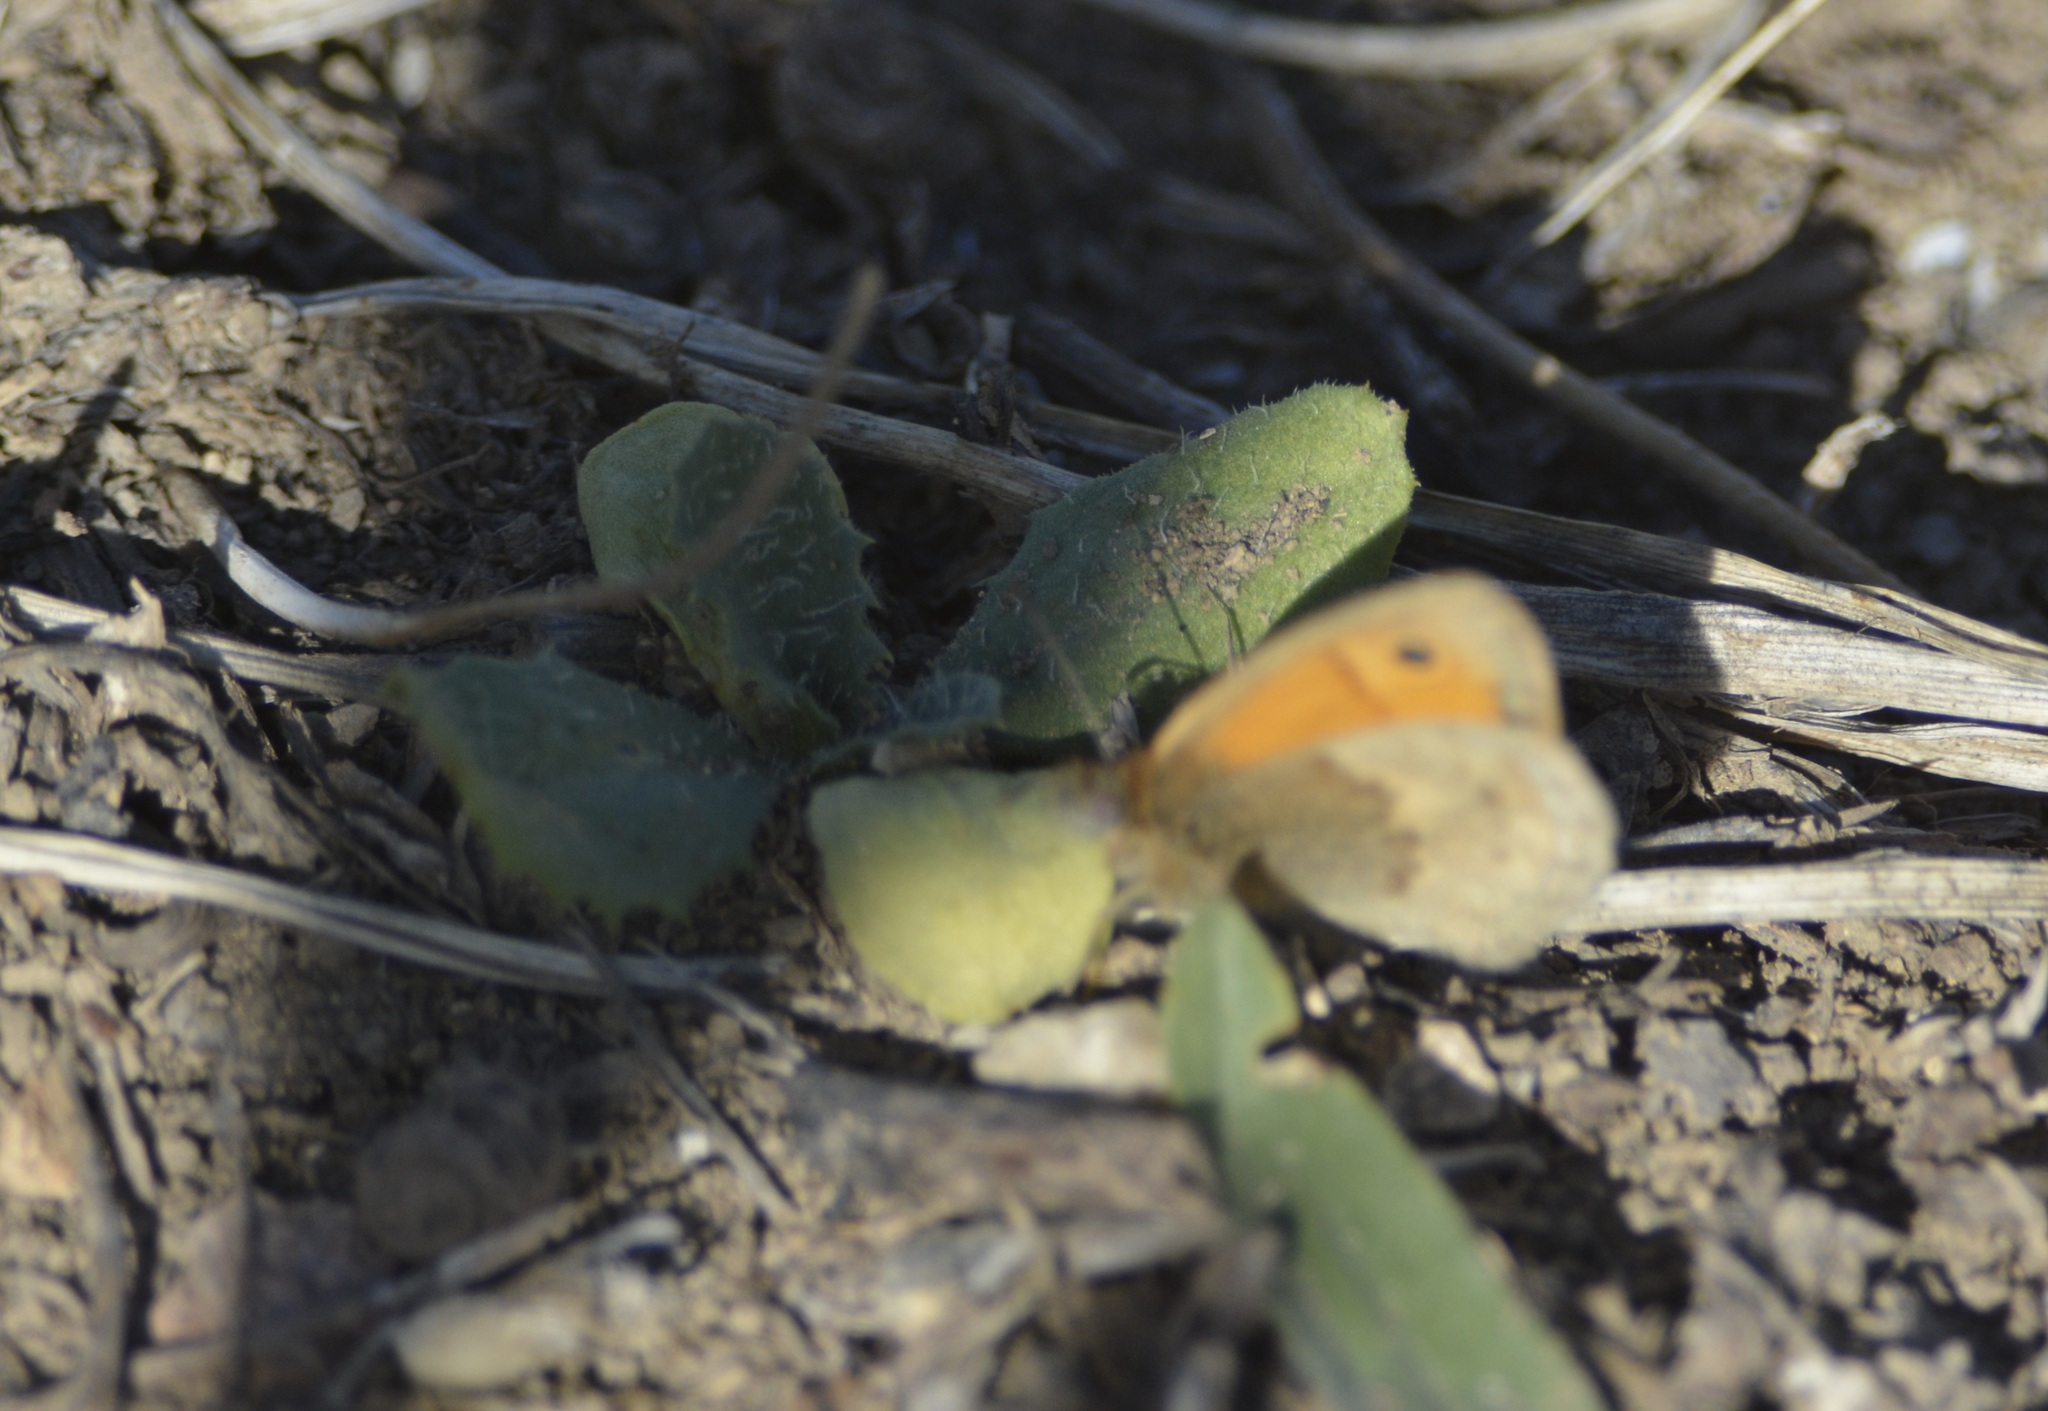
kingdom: Animalia
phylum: Arthropoda
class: Insecta
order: Lepidoptera
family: Nymphalidae
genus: Coenonympha
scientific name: Coenonympha pamphilus
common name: Small heath
